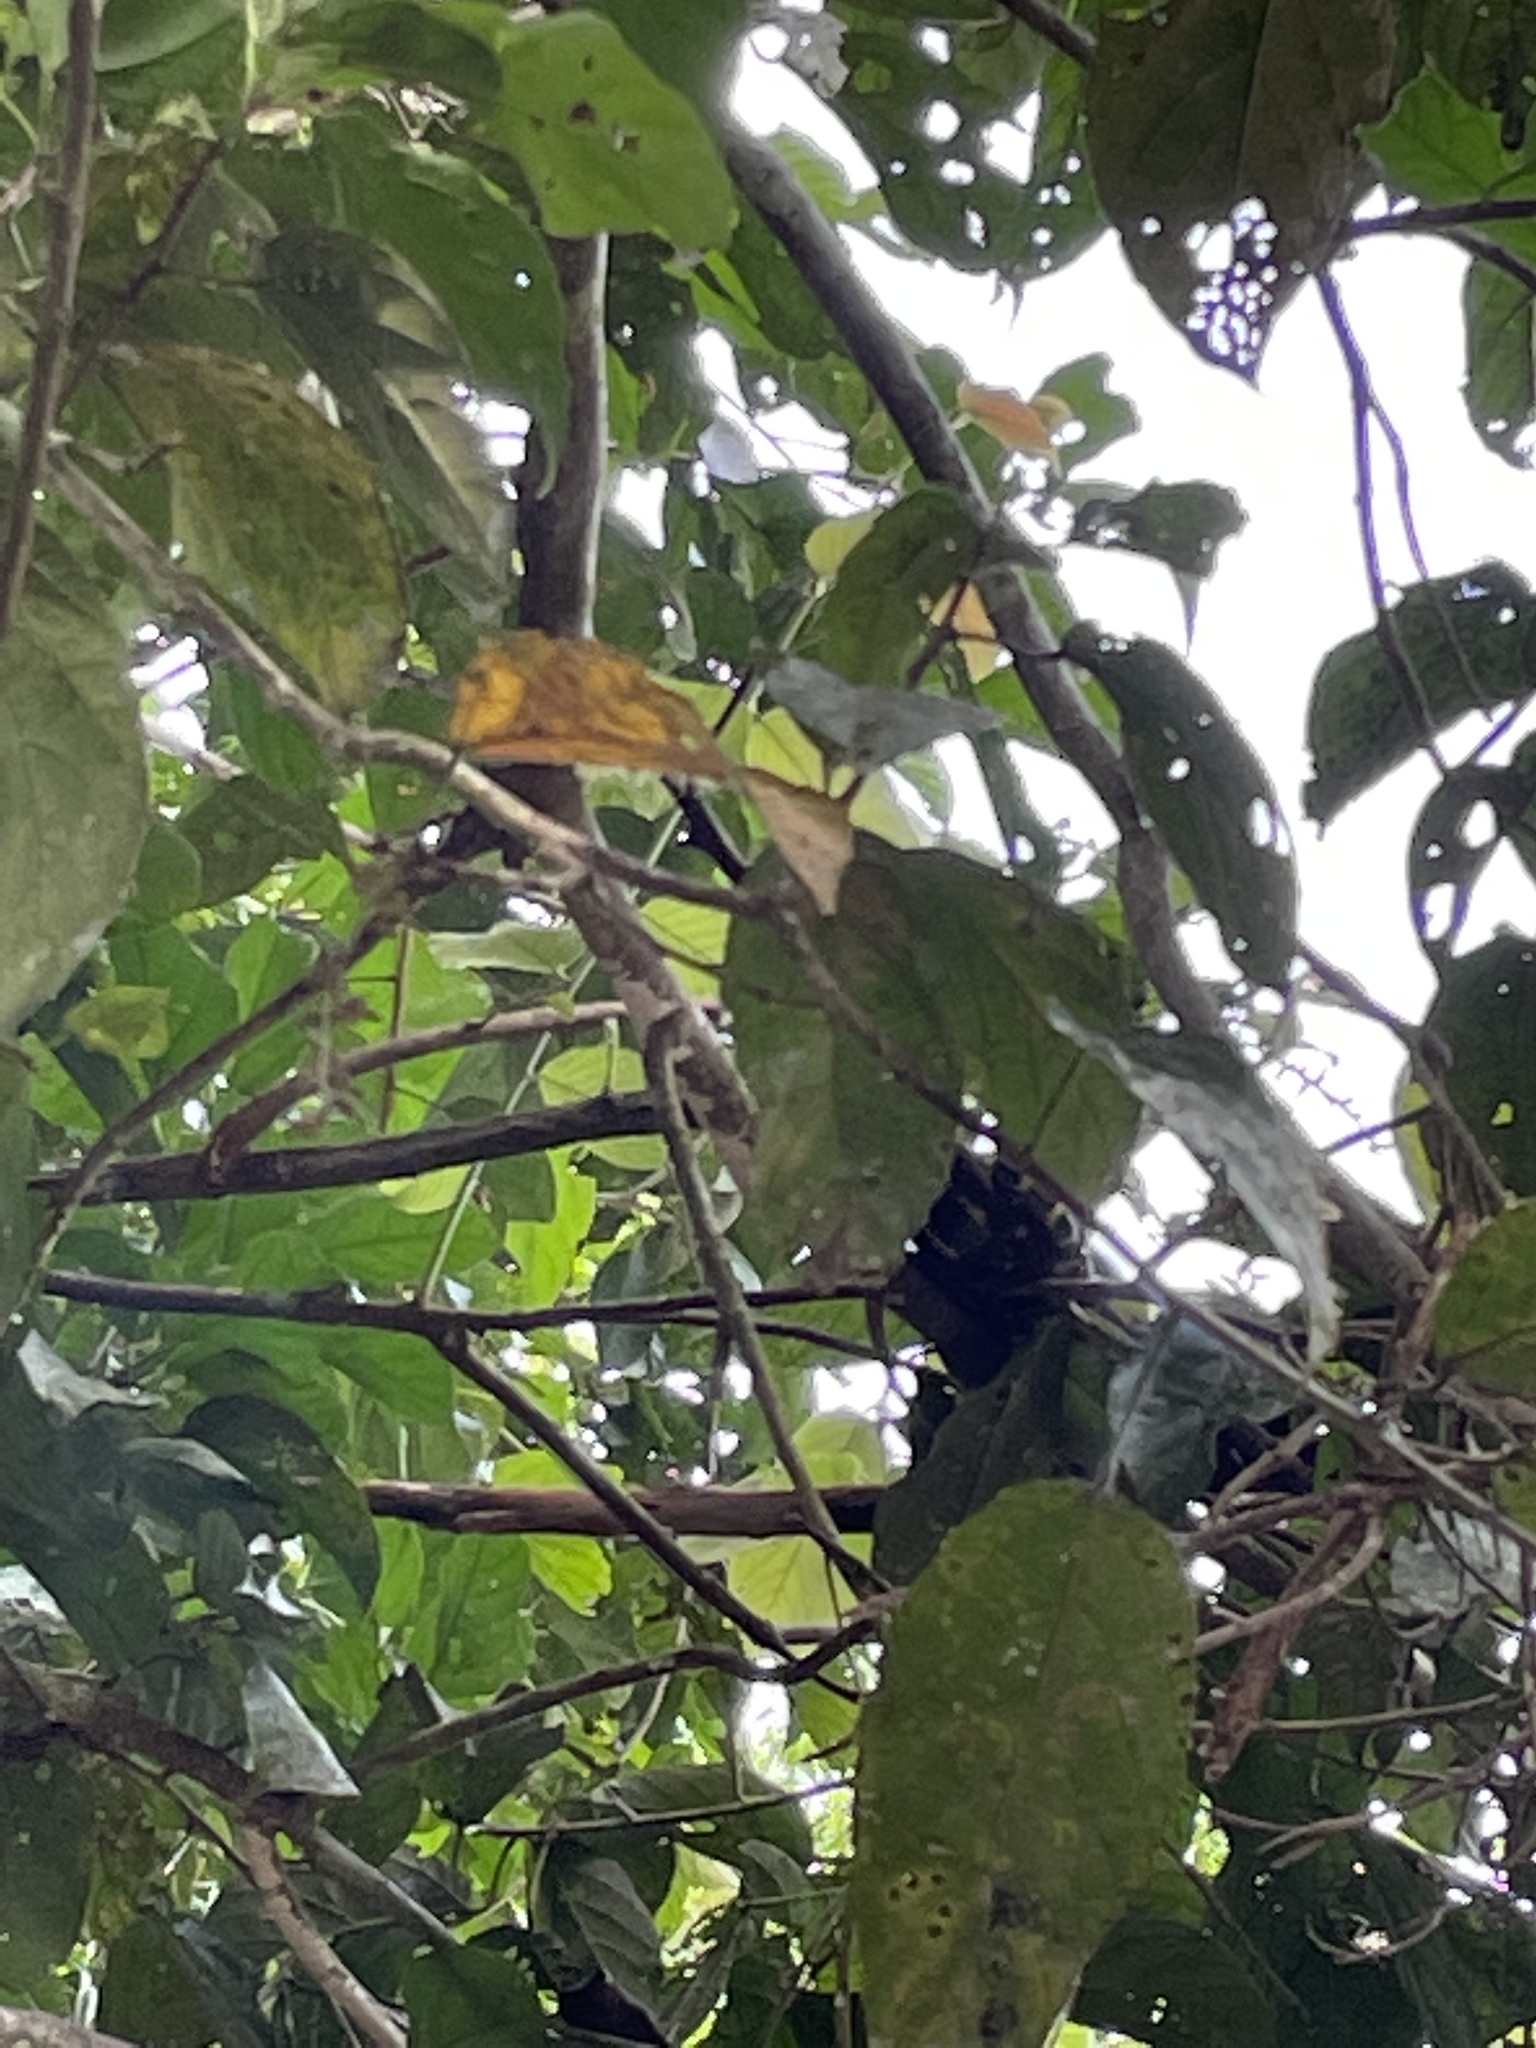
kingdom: Animalia
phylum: Chordata
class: Squamata
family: Colubridae
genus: Boiga
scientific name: Boiga dendrophila
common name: Gold-ringed cat snake
